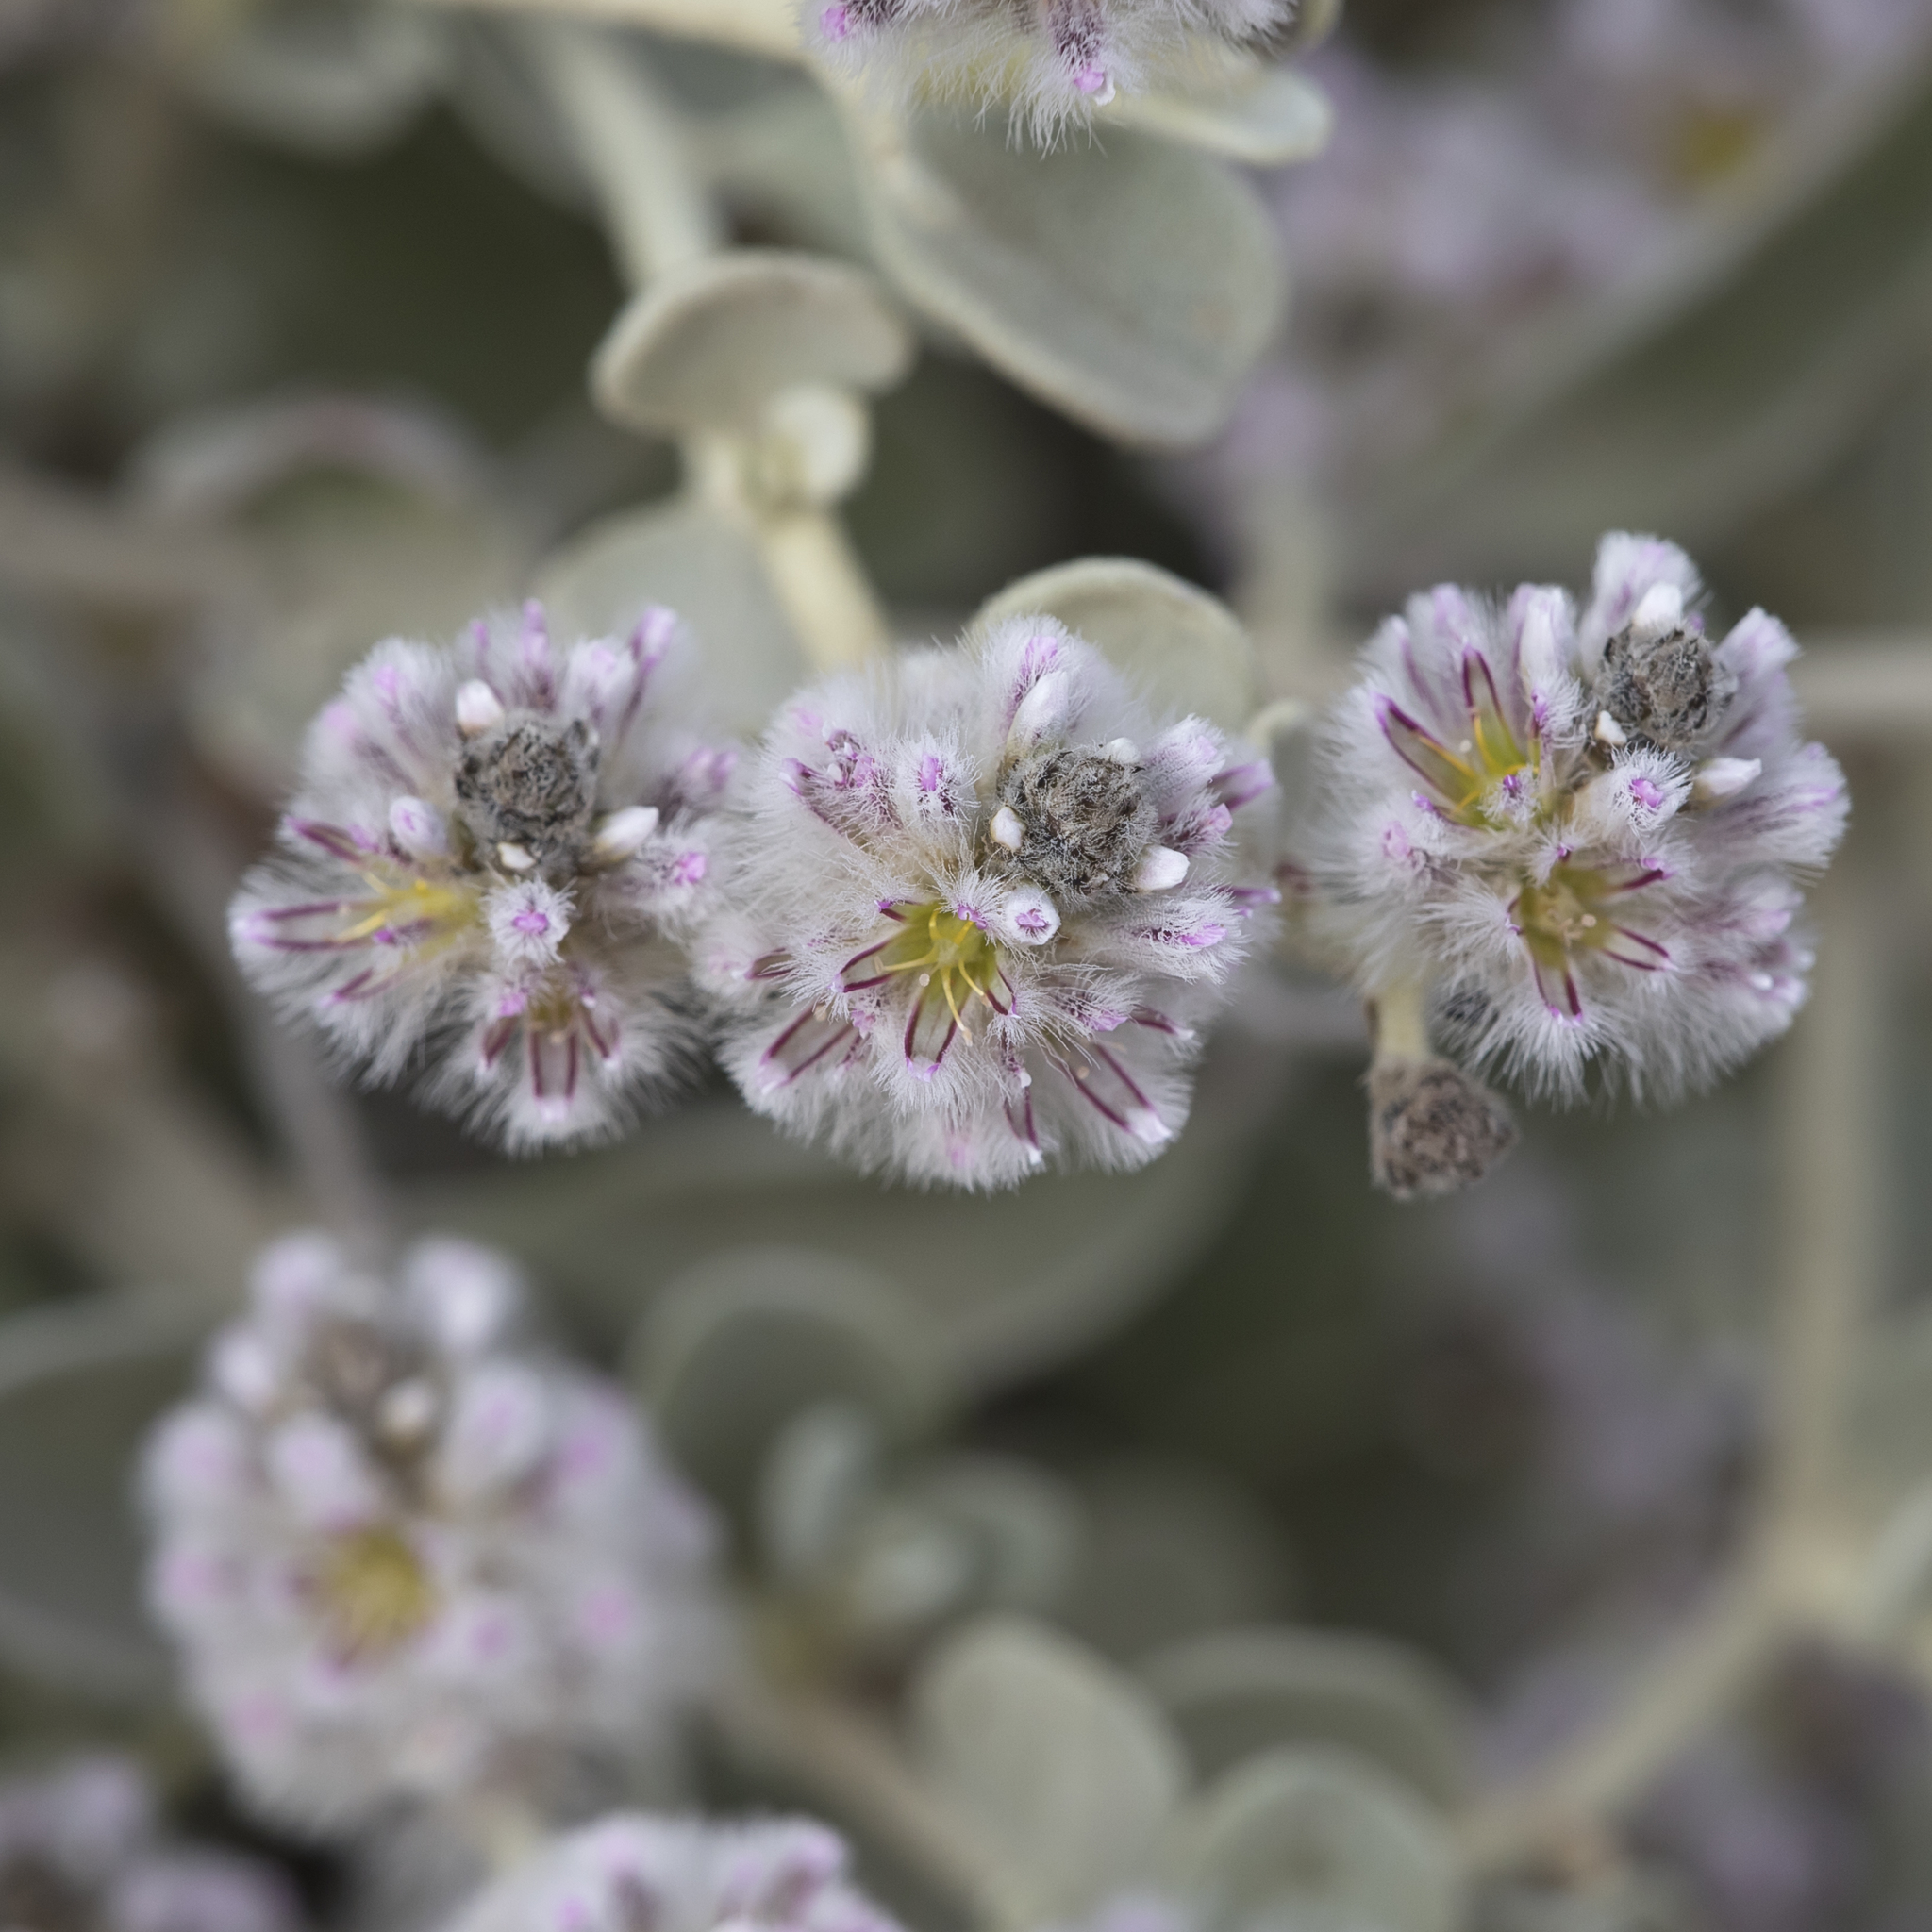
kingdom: Plantae
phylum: Tracheophyta
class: Magnoliopsida
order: Caryophyllales
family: Amaranthaceae
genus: Ptilotus
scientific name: Ptilotus obovatus
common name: Cottonbush
